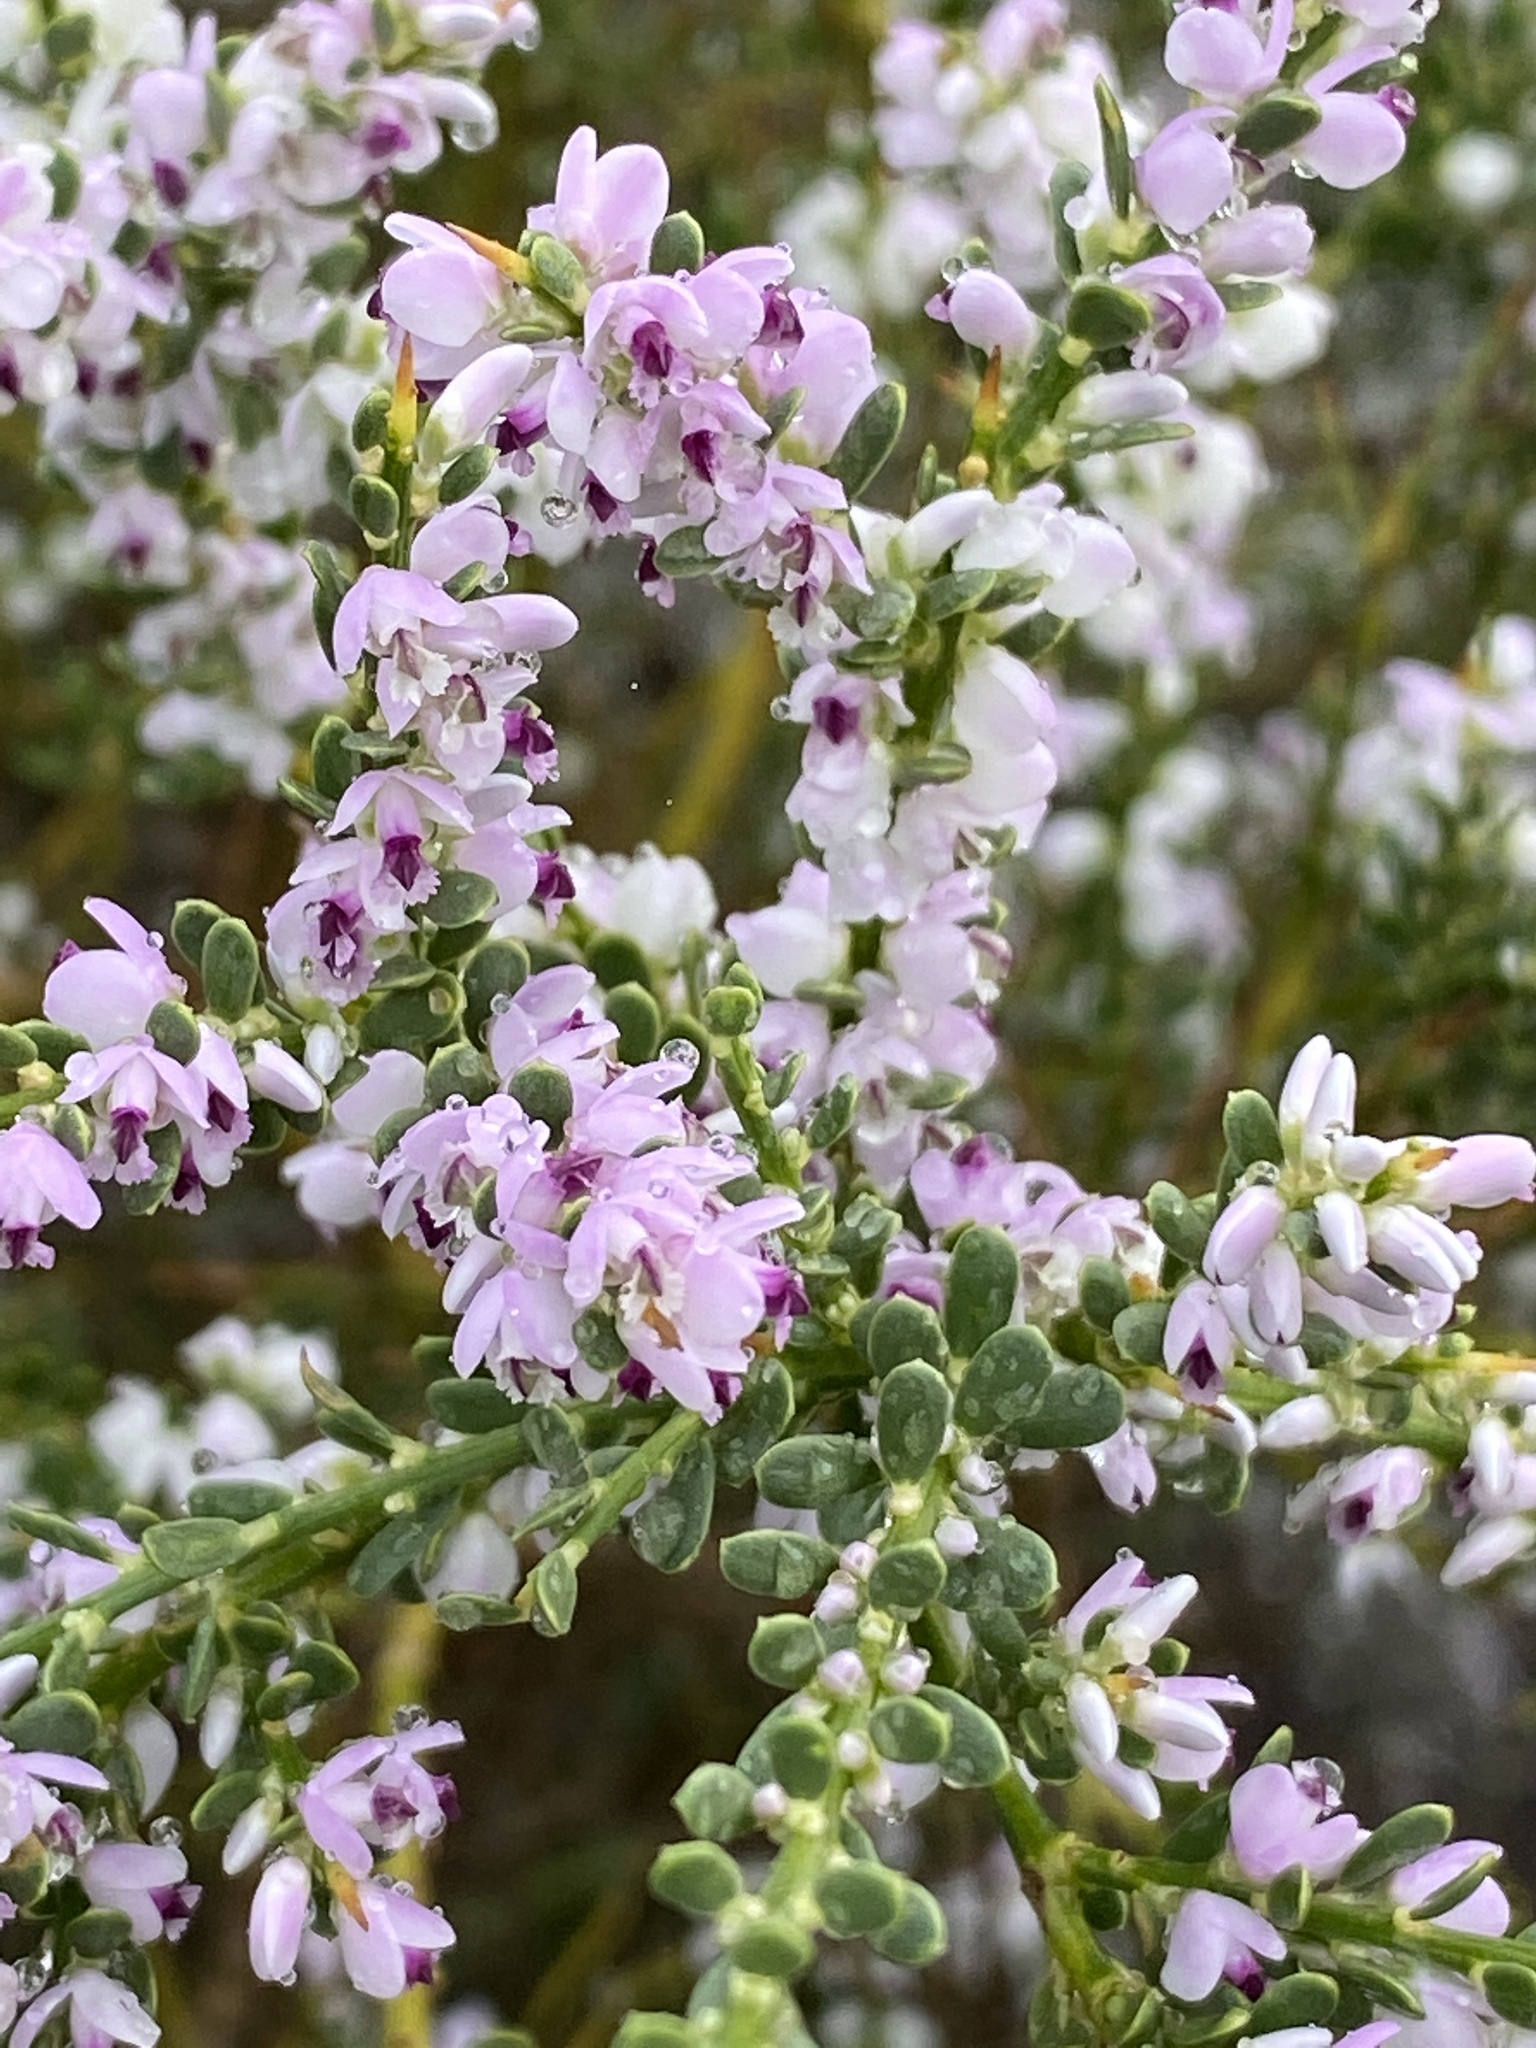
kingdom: Plantae
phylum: Tracheophyta
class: Magnoliopsida
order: Fabales
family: Polygalaceae
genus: Muraltia
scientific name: Muraltia spinosa
